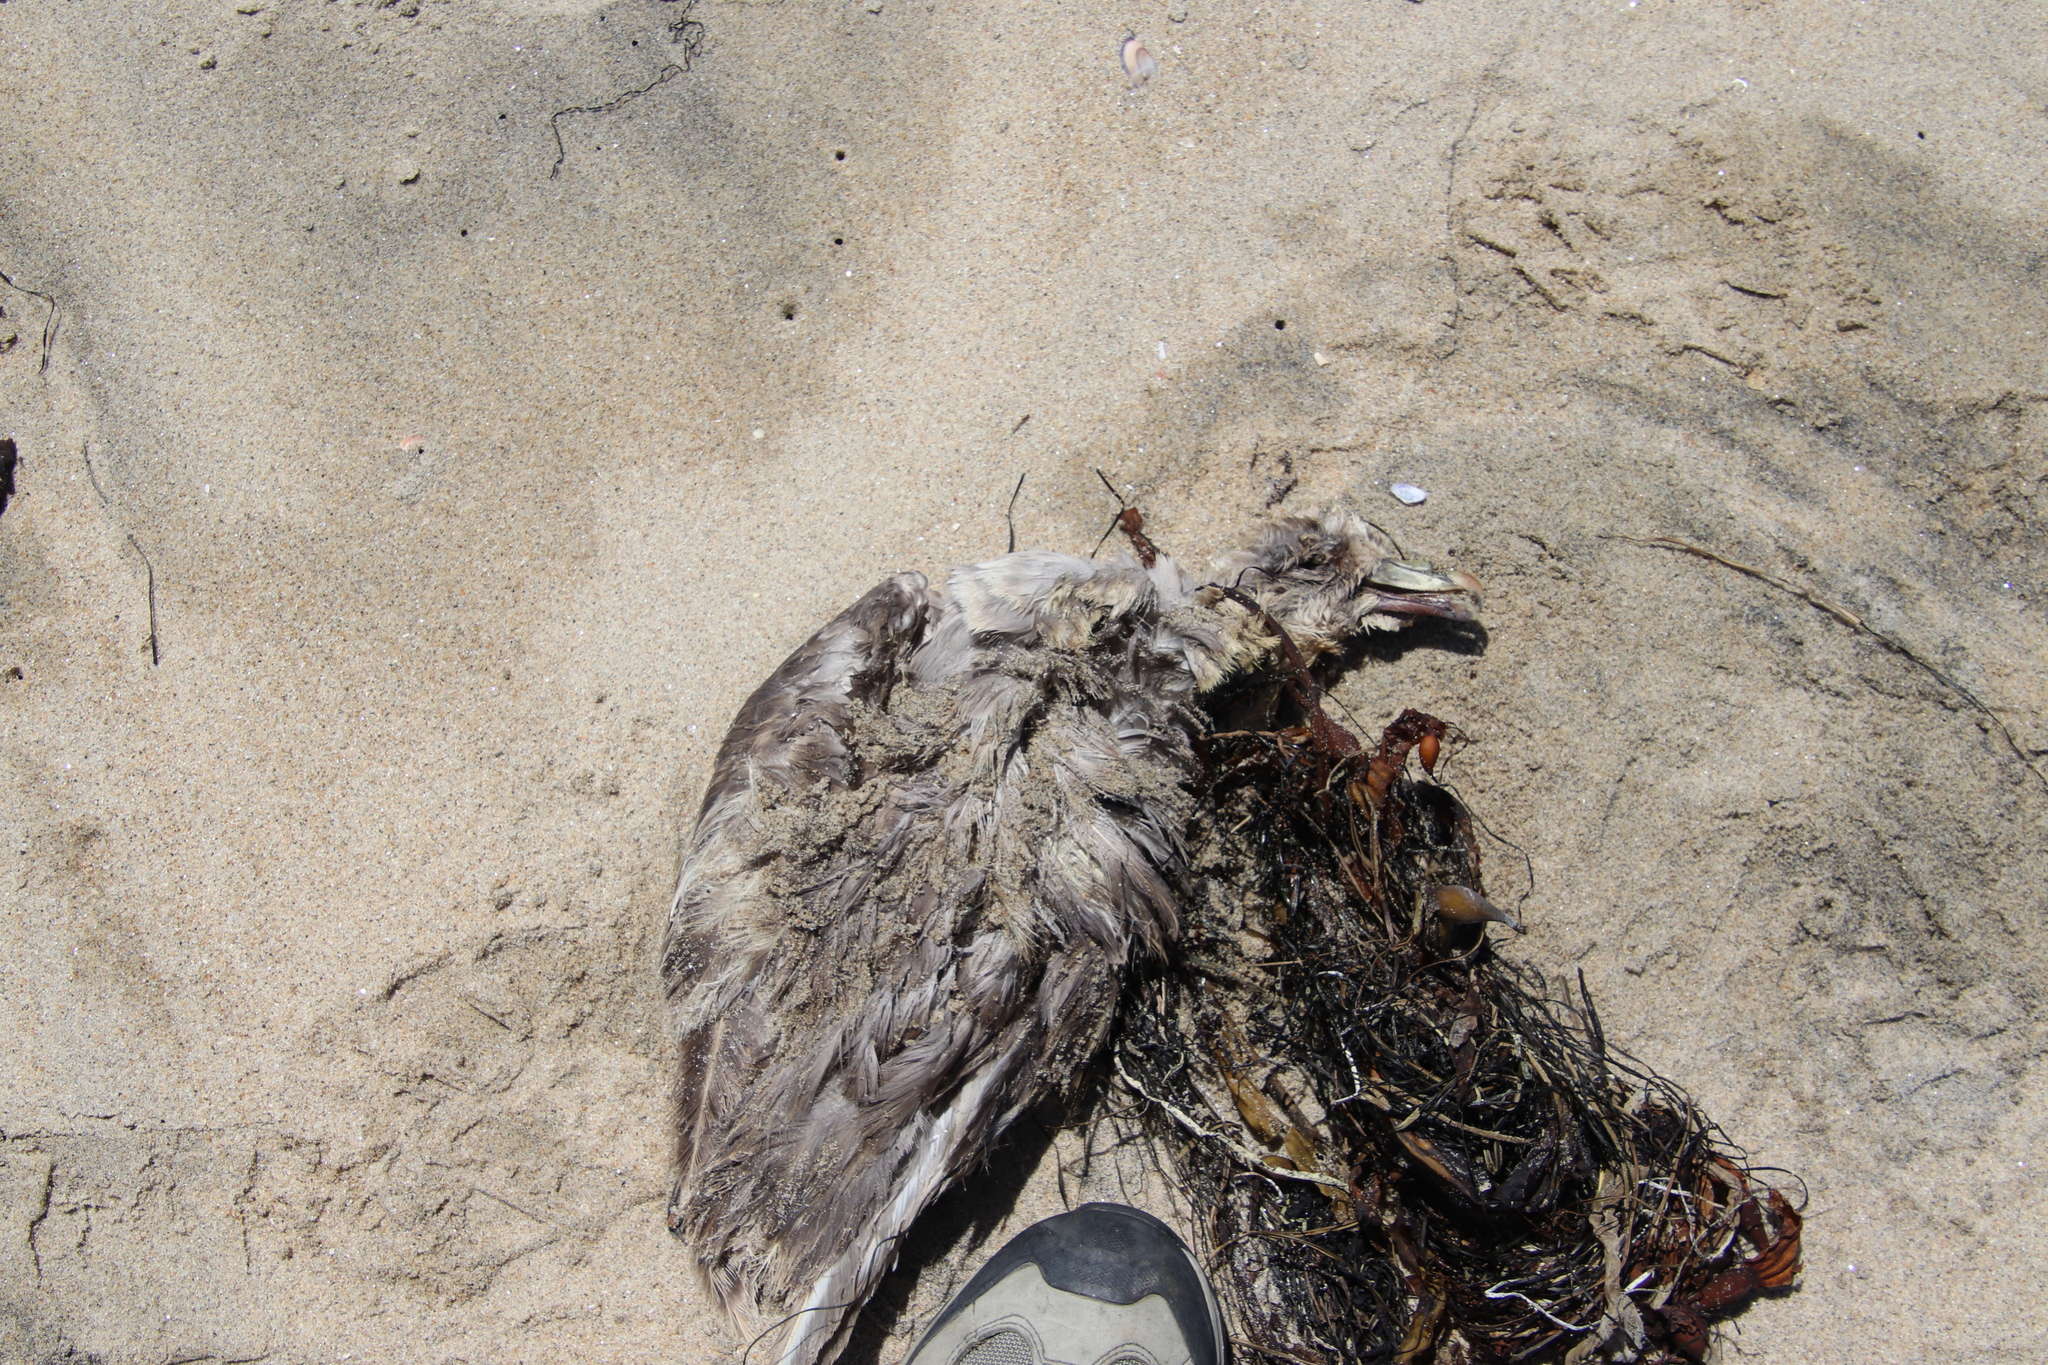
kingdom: Animalia
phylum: Chordata
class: Aves
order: Procellariiformes
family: Procellariidae
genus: Fulmarus
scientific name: Fulmarus glacialis
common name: Northern fulmar
